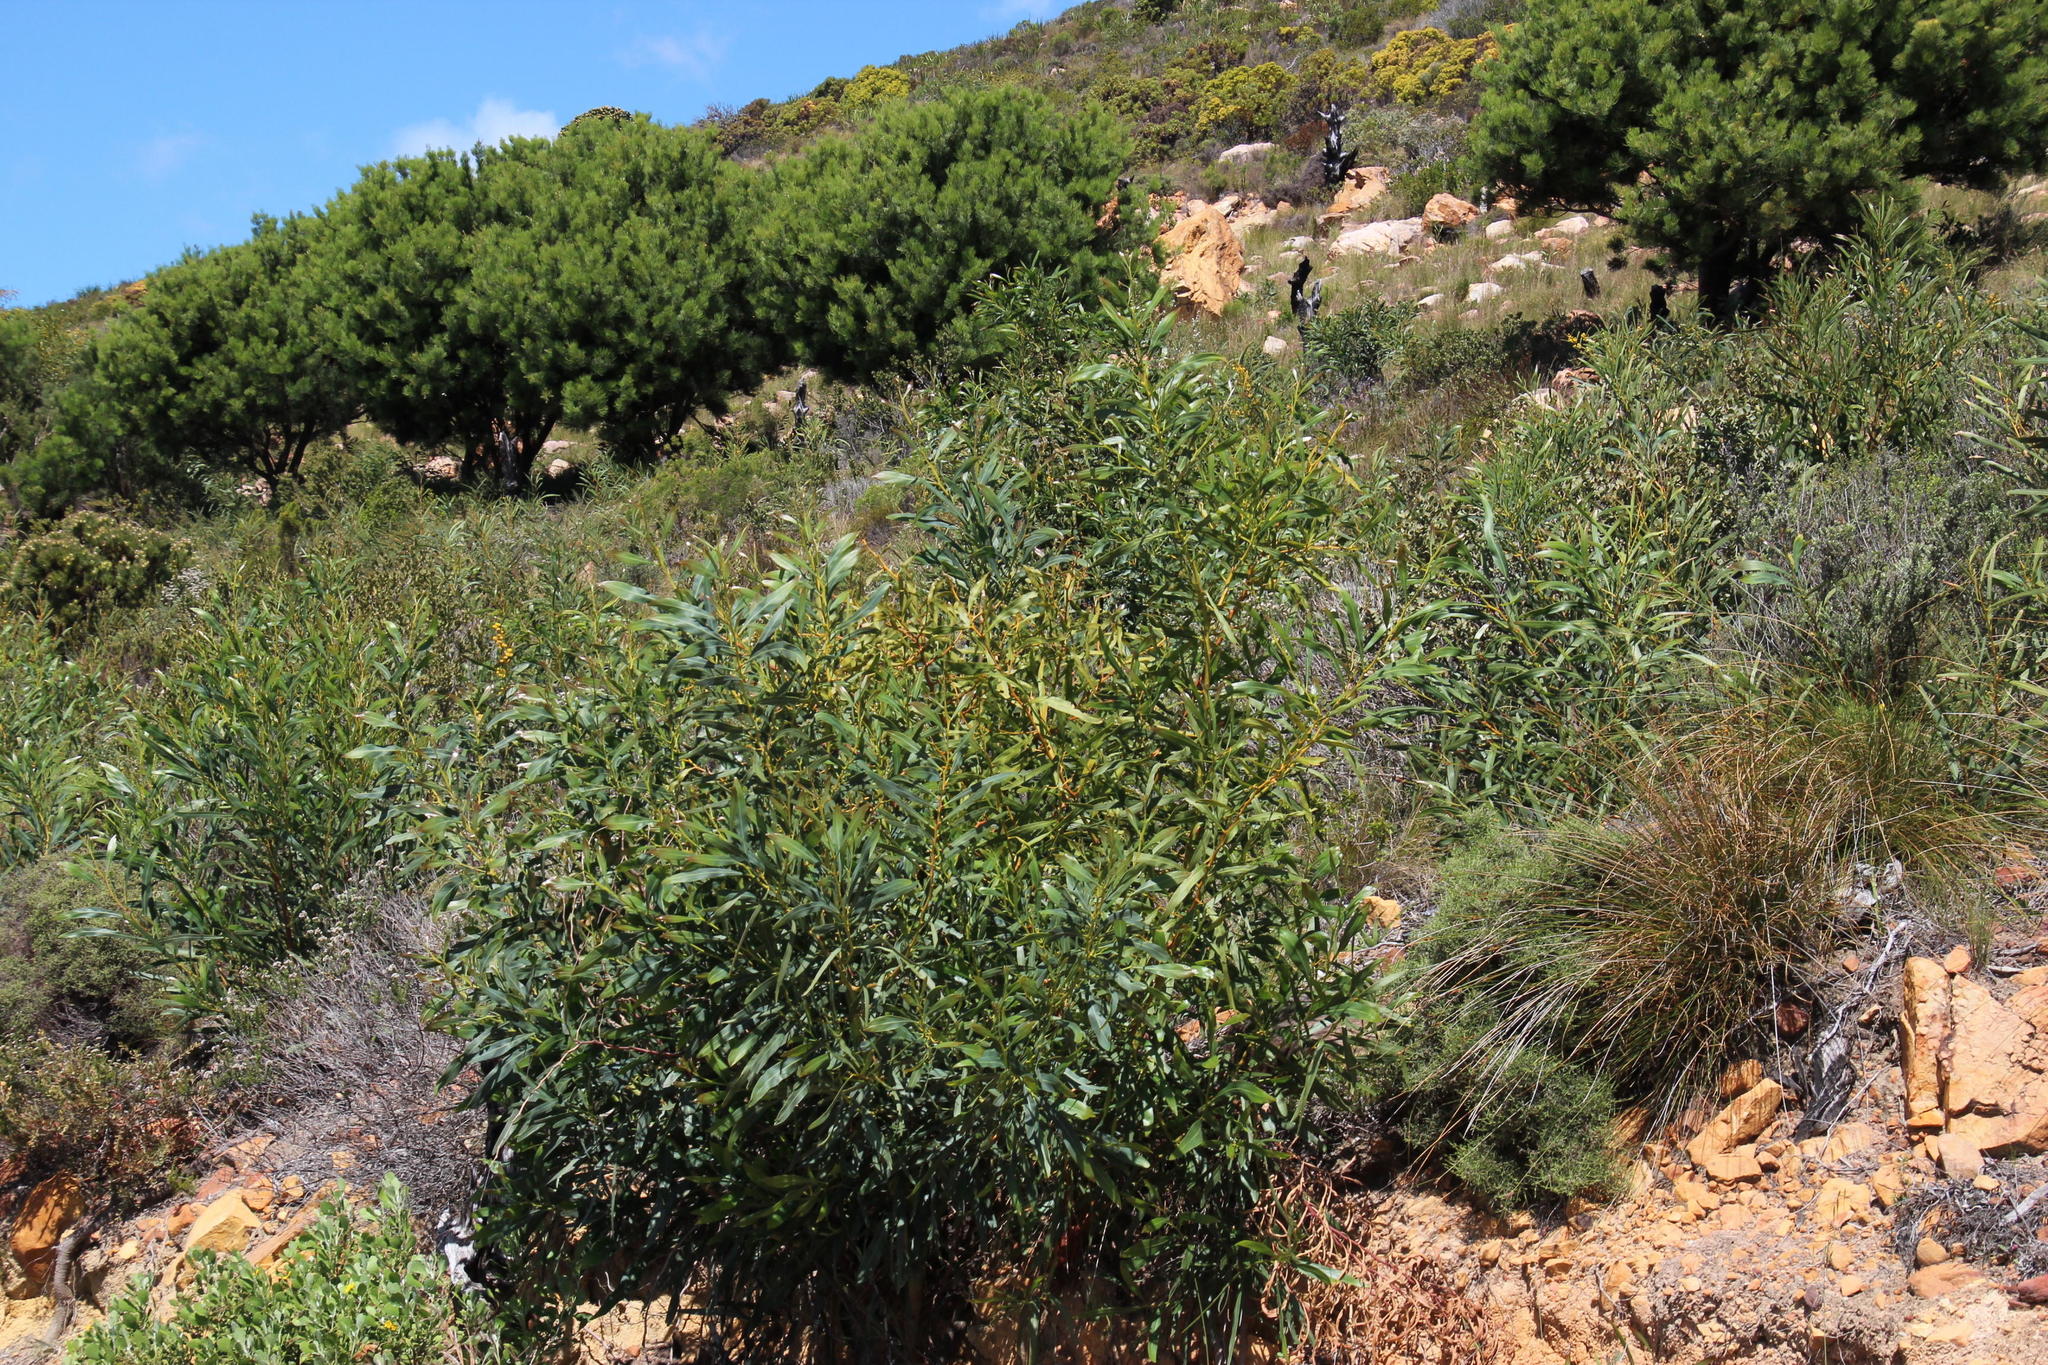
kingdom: Plantae
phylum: Tracheophyta
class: Magnoliopsida
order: Fabales
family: Fabaceae
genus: Acacia
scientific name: Acacia saligna
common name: Orange wattle
